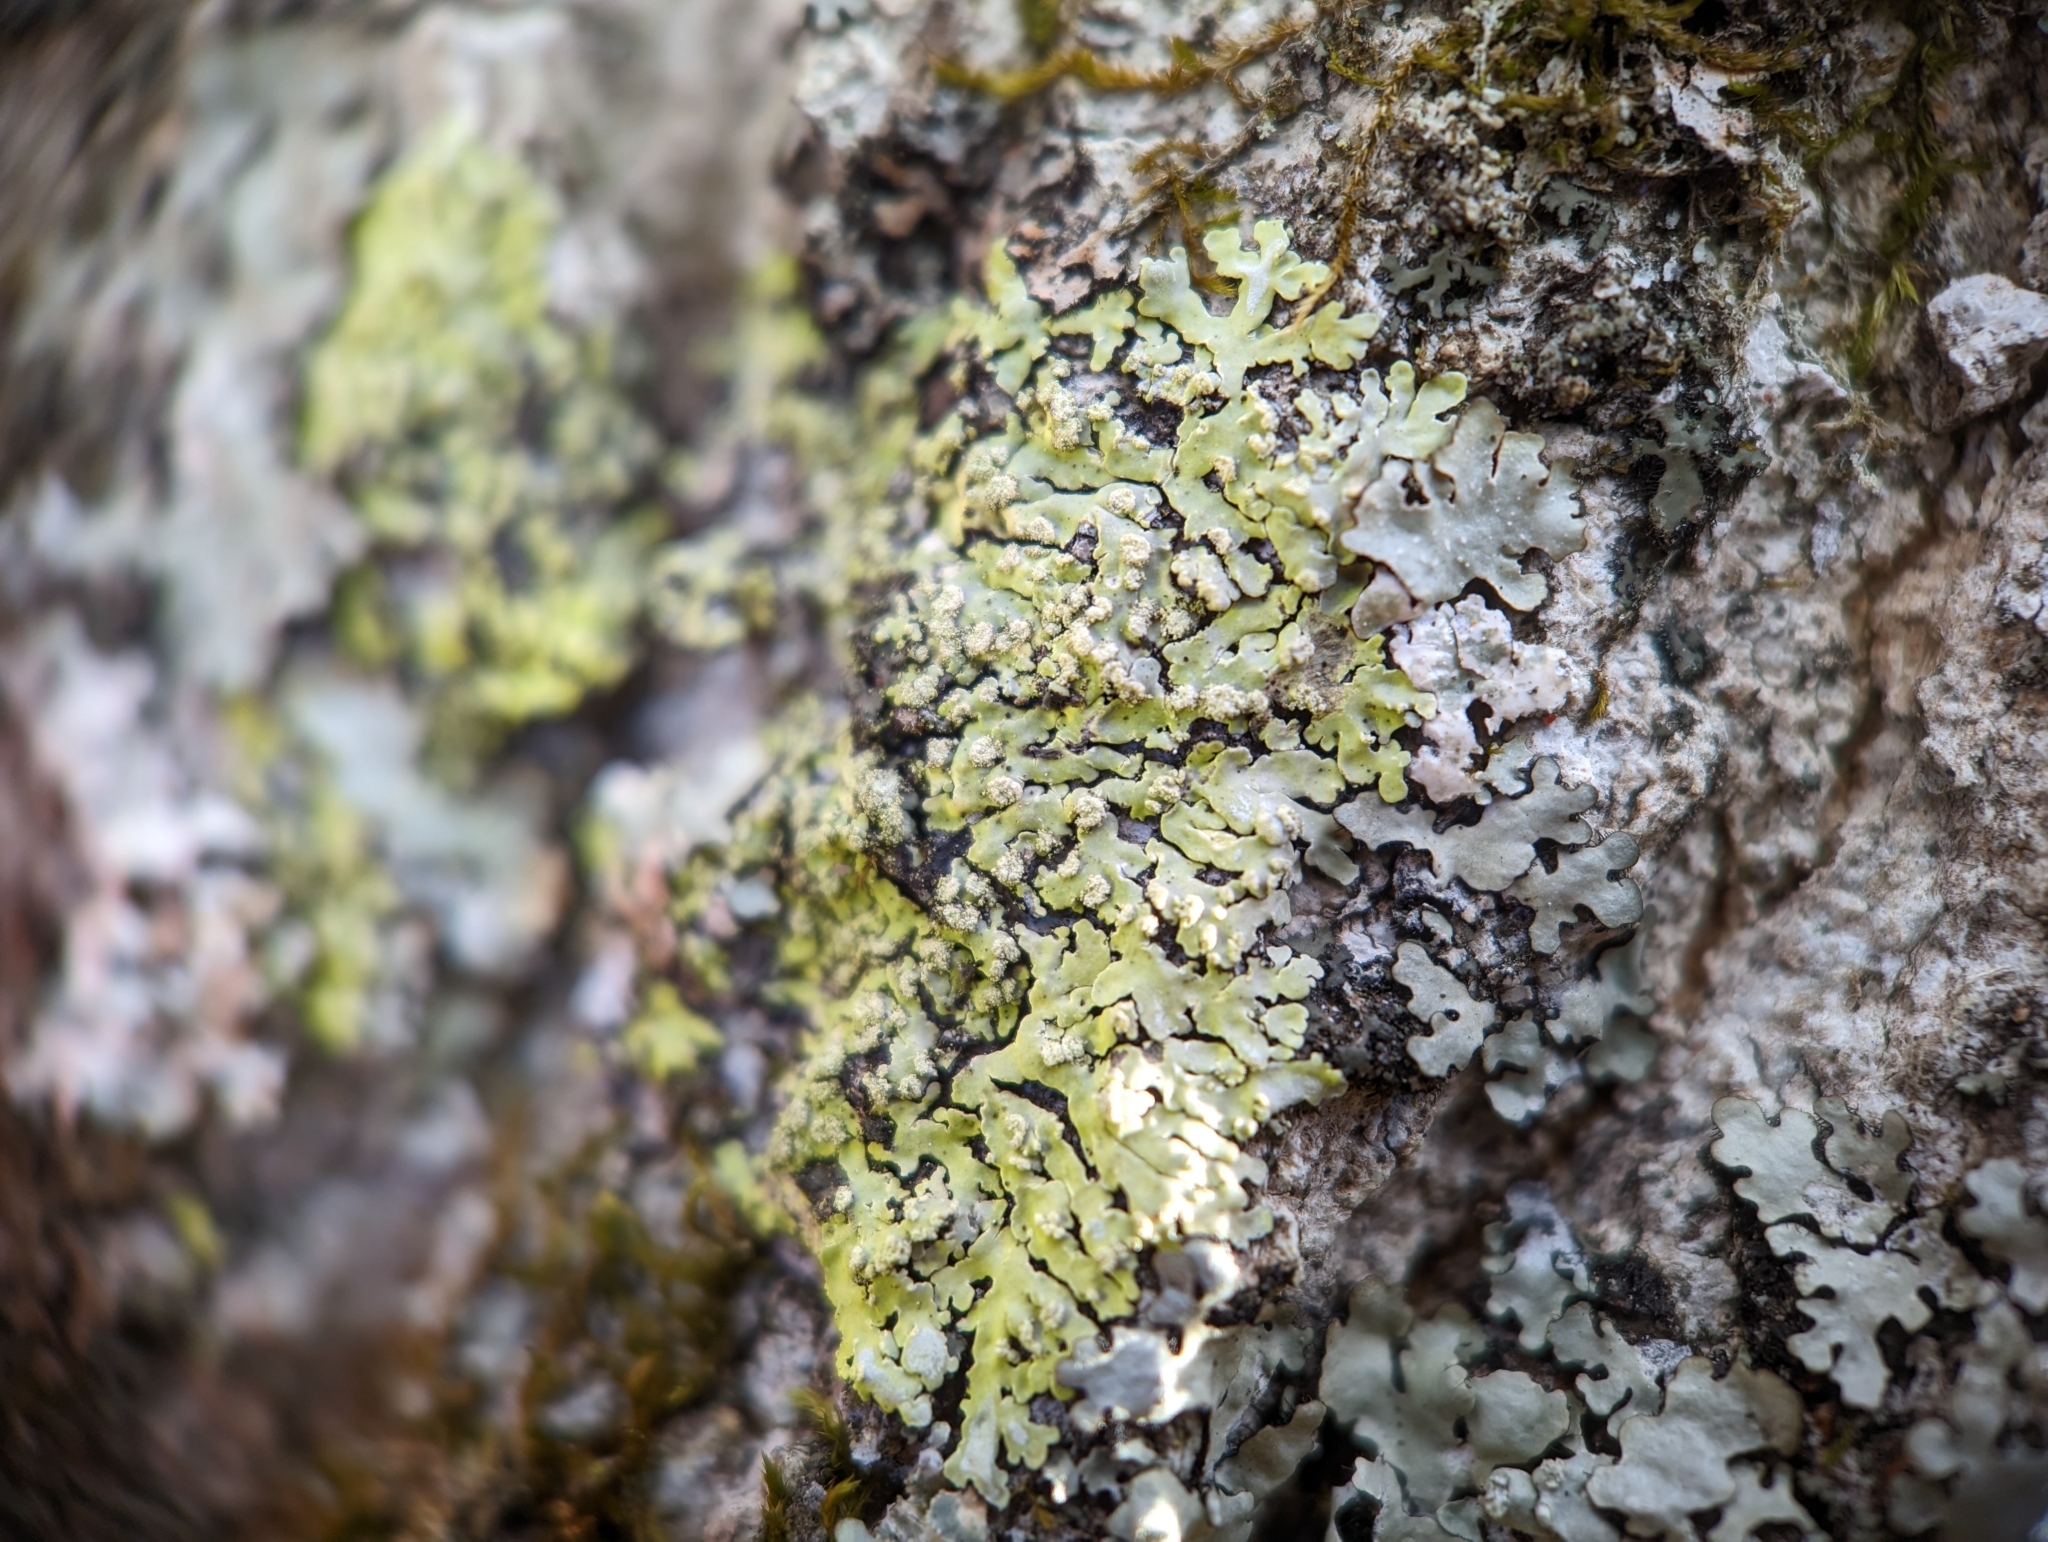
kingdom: Fungi
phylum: Ascomycota
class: Lecanoromycetes
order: Caliciales
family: Caliciaceae
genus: Pyxine
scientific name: Pyxine subcinerea
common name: Mustard lichen
